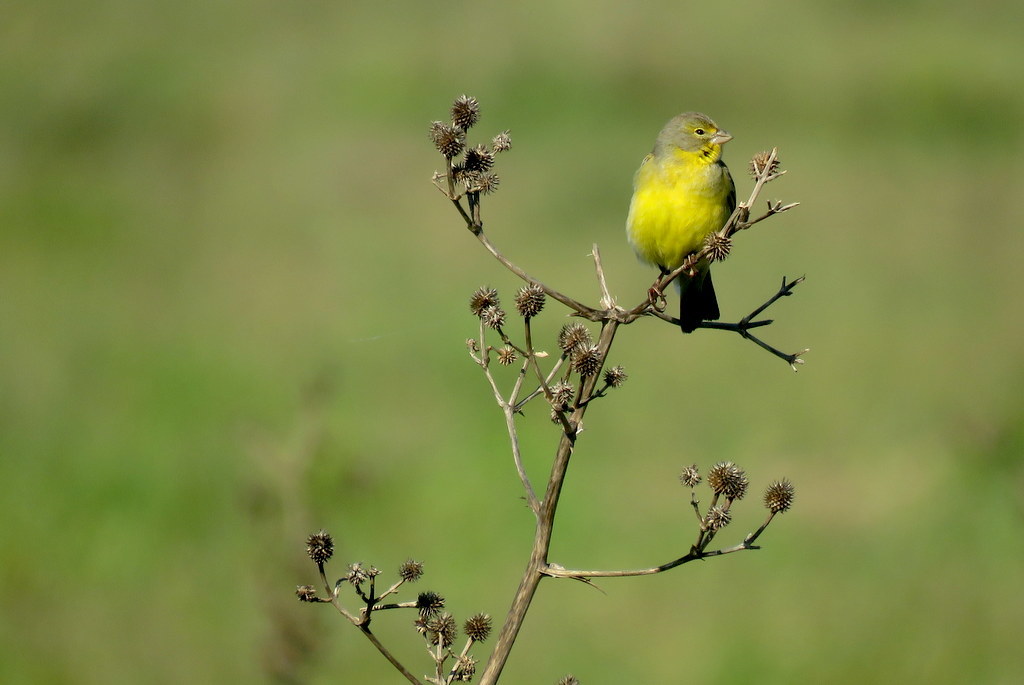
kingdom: Animalia
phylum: Chordata
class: Aves
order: Passeriformes
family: Thraupidae
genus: Sicalis
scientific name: Sicalis luteola
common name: Grassland yellow-finch
